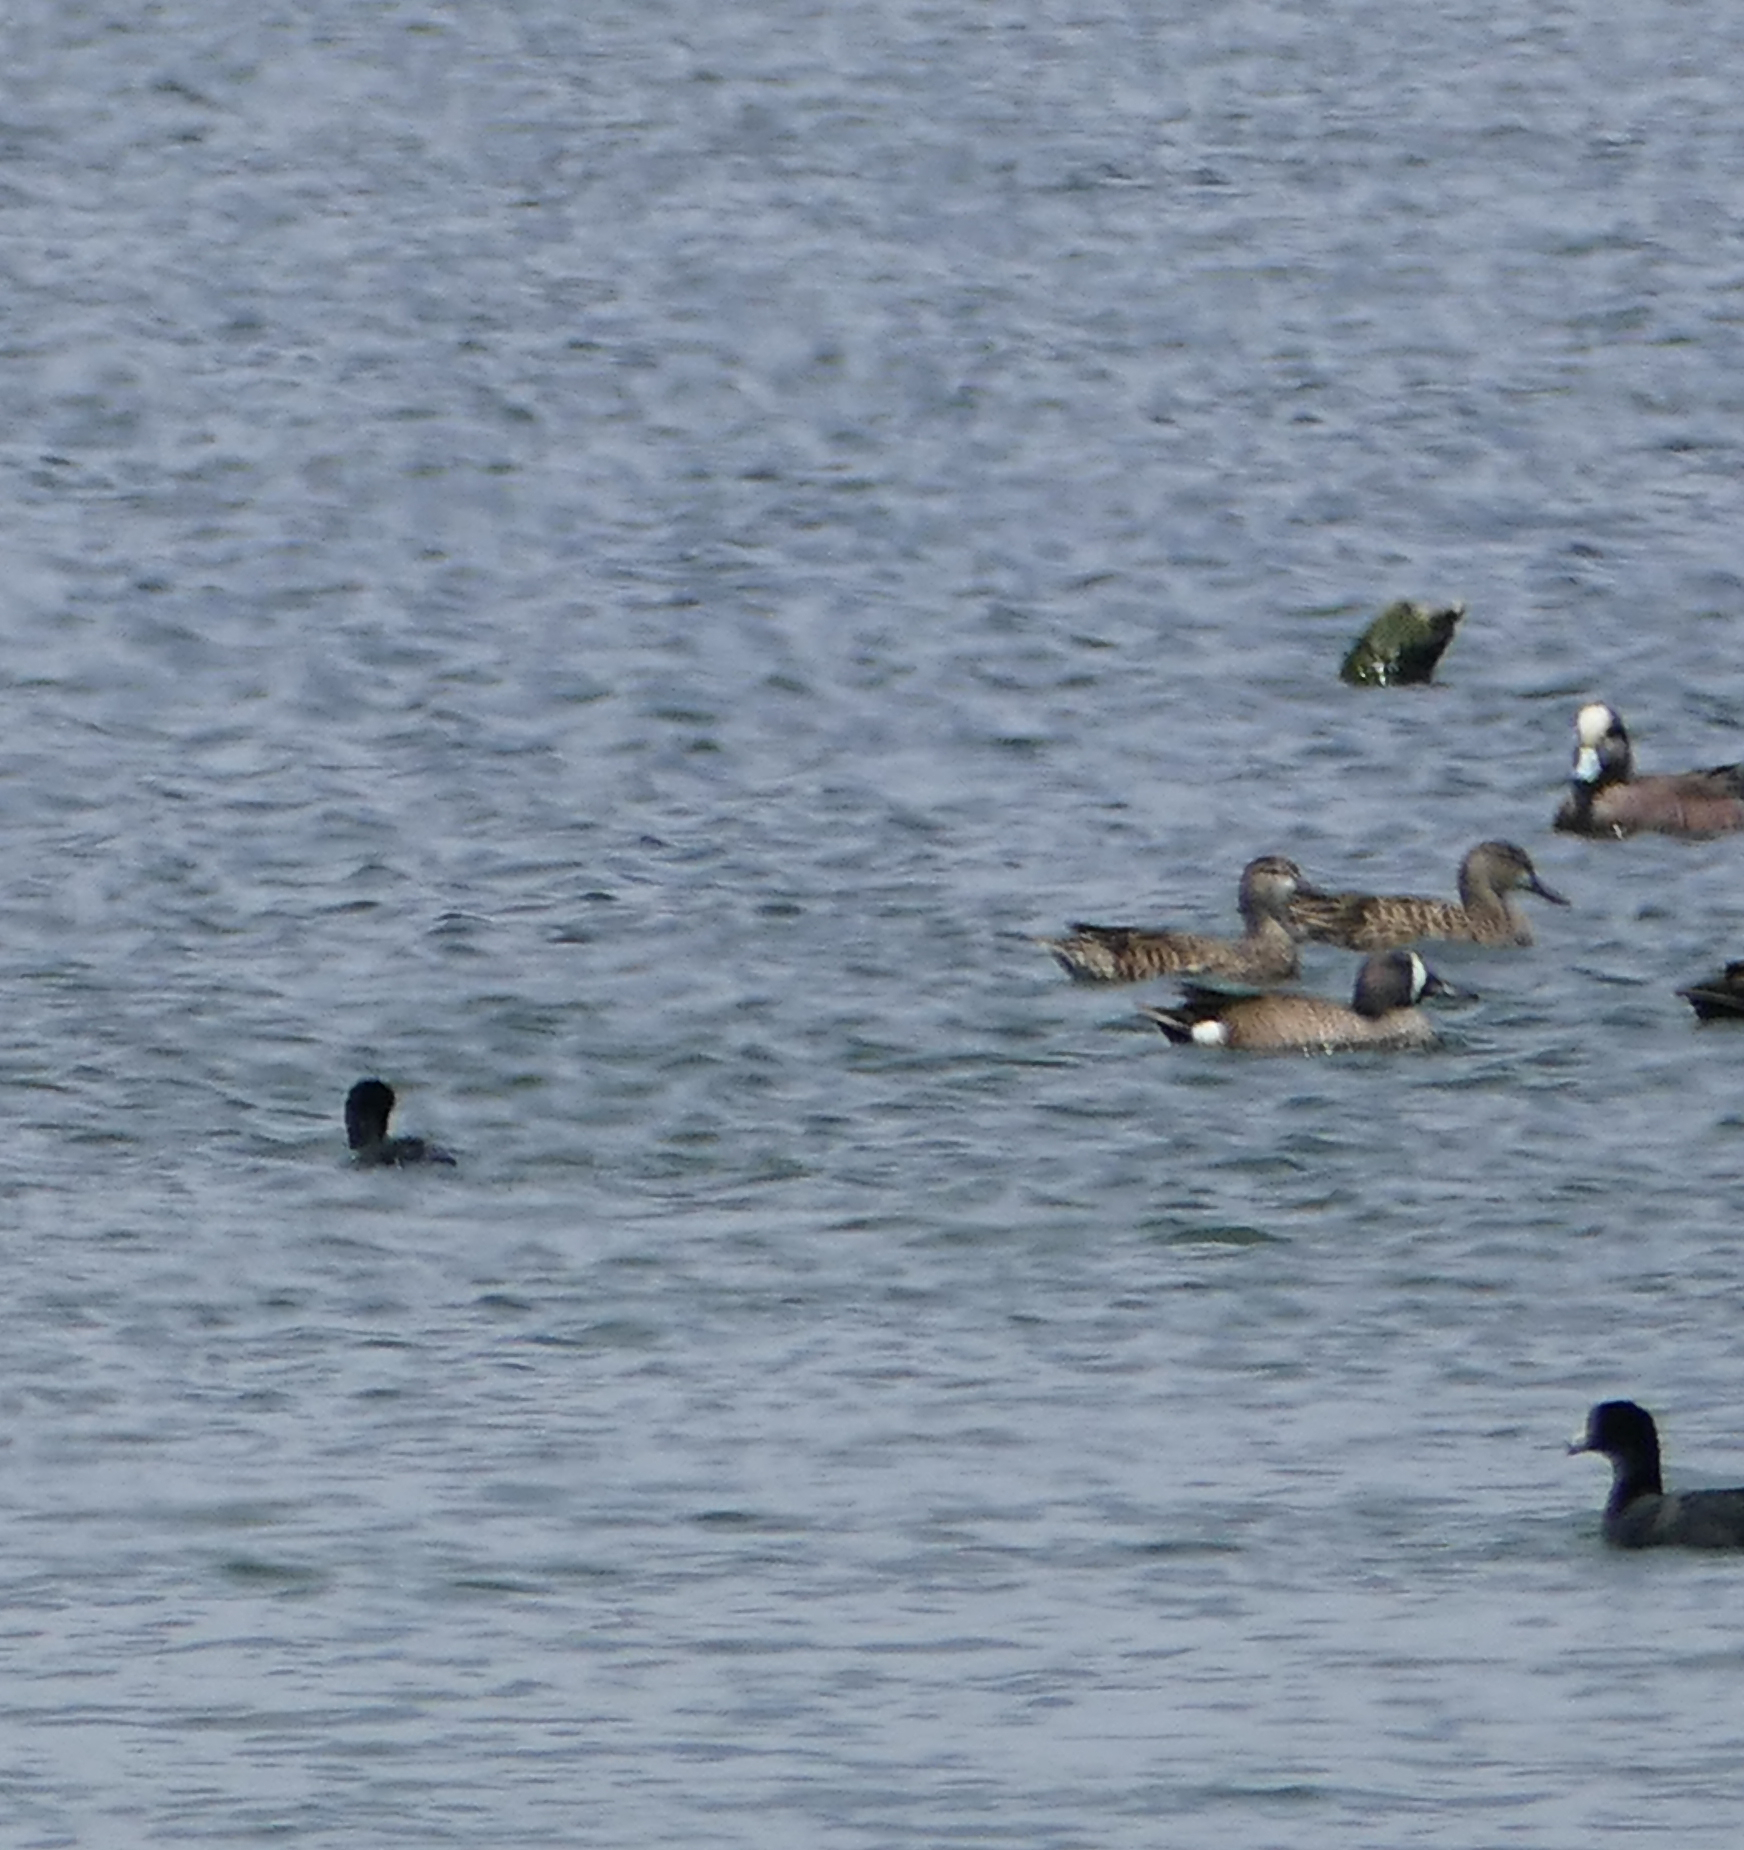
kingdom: Animalia
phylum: Chordata
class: Aves
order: Anseriformes
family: Anatidae
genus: Mareca
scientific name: Mareca americana
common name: American wigeon
